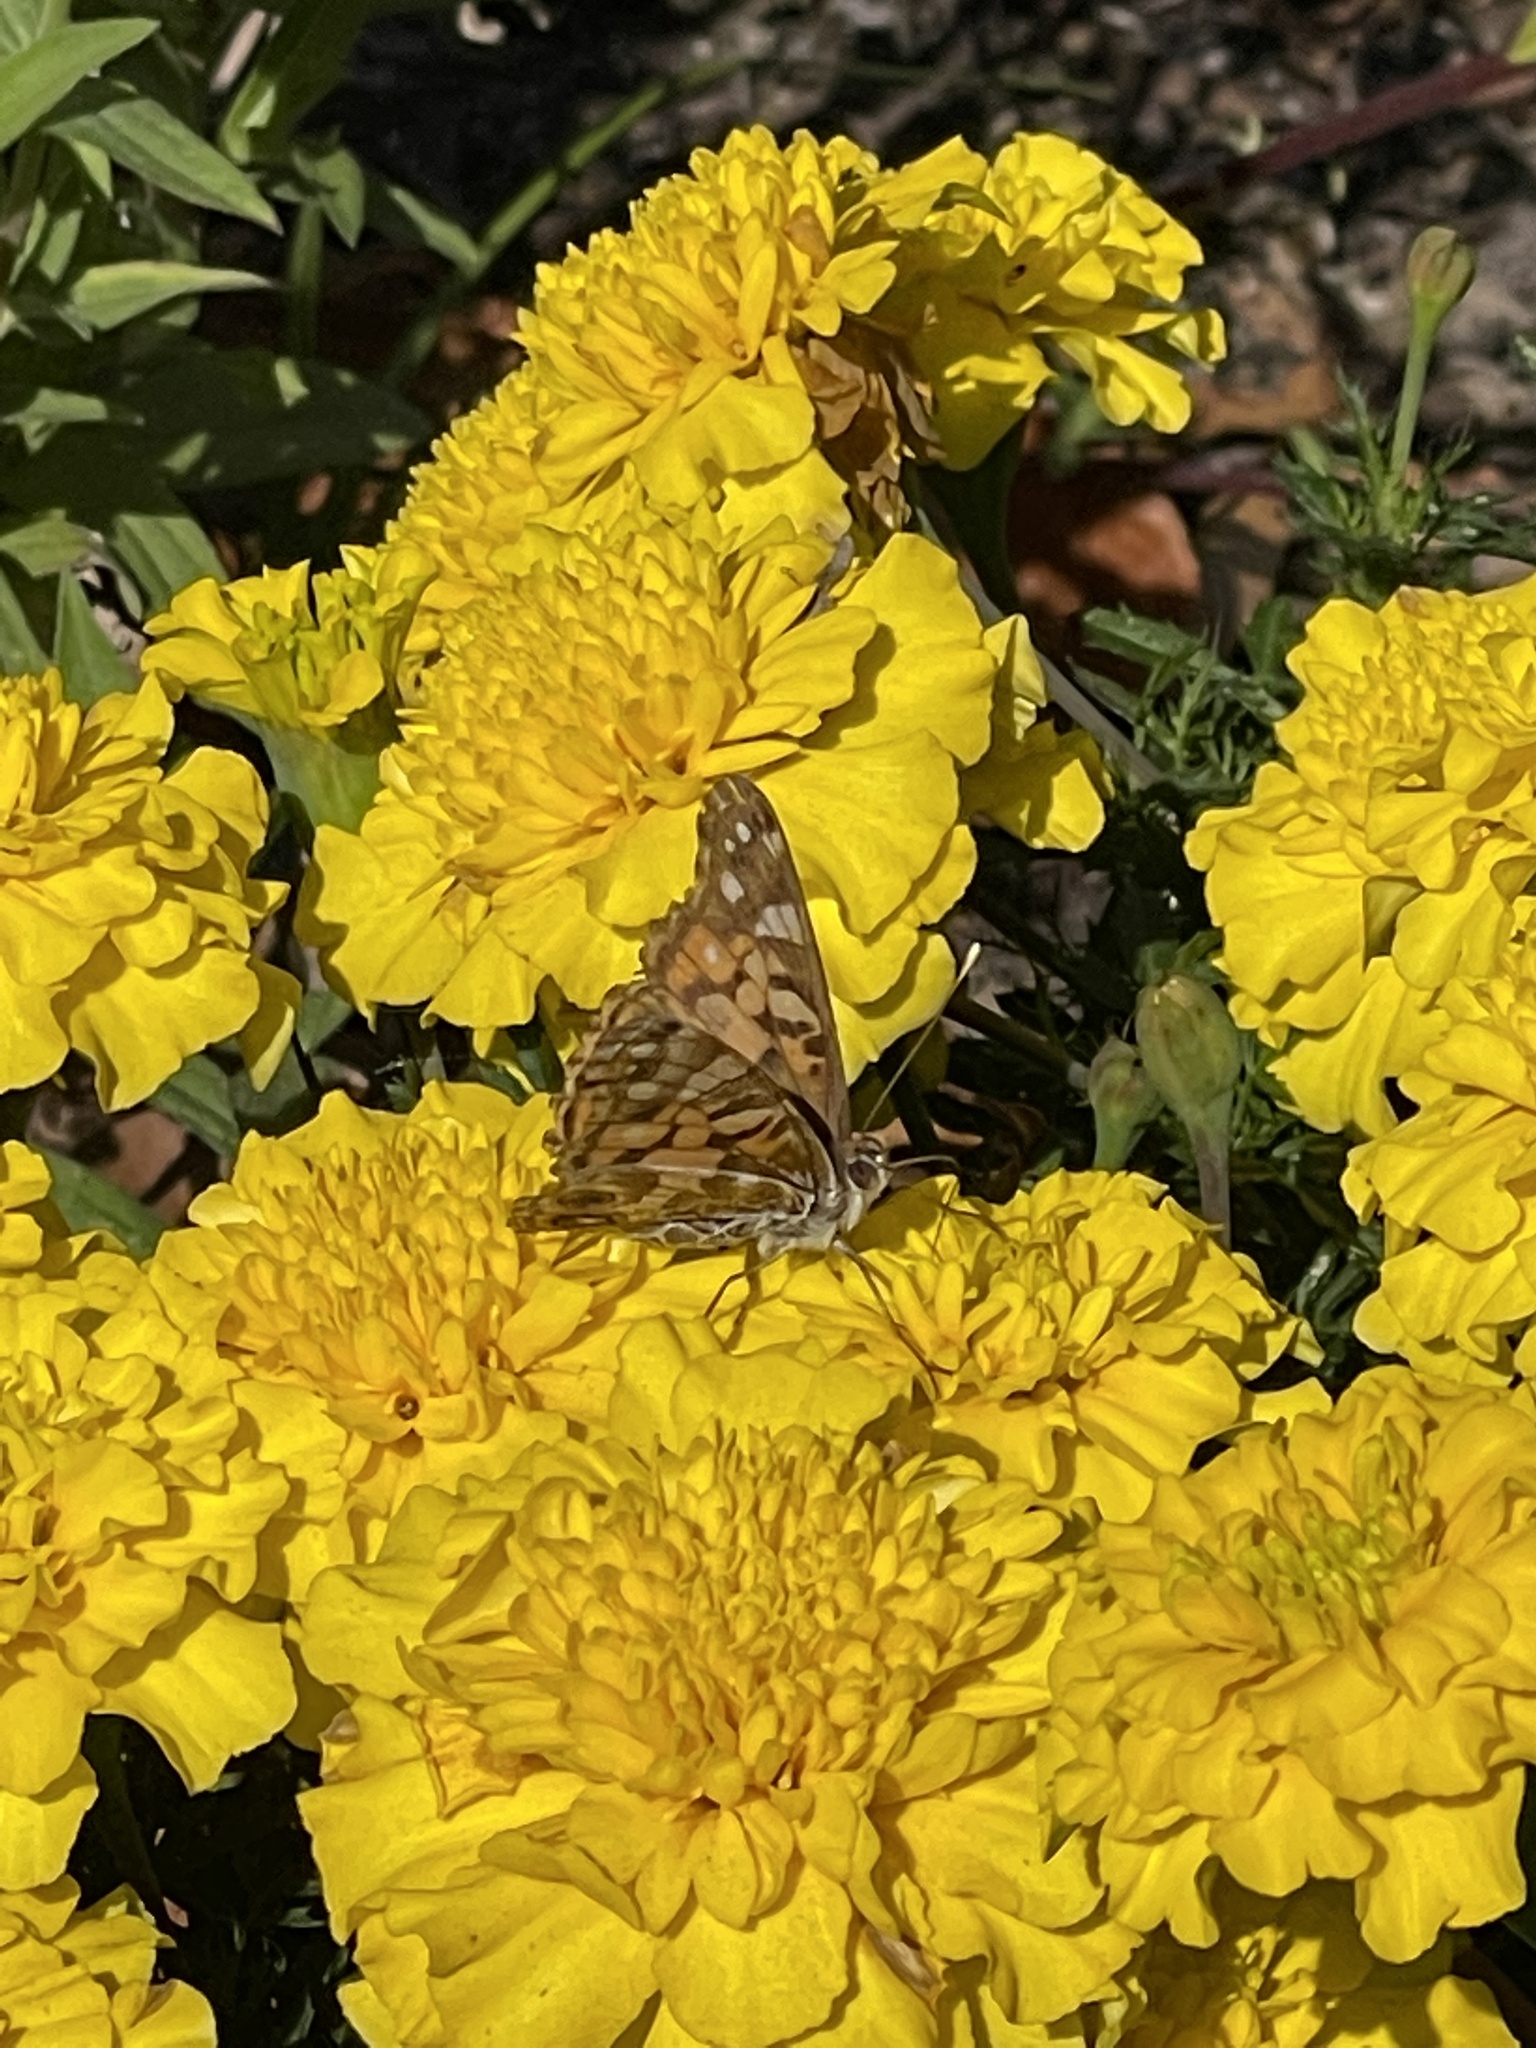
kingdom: Animalia
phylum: Arthropoda
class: Insecta
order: Lepidoptera
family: Nymphalidae
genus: Vanessa
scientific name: Vanessa virginiensis
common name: American lady
